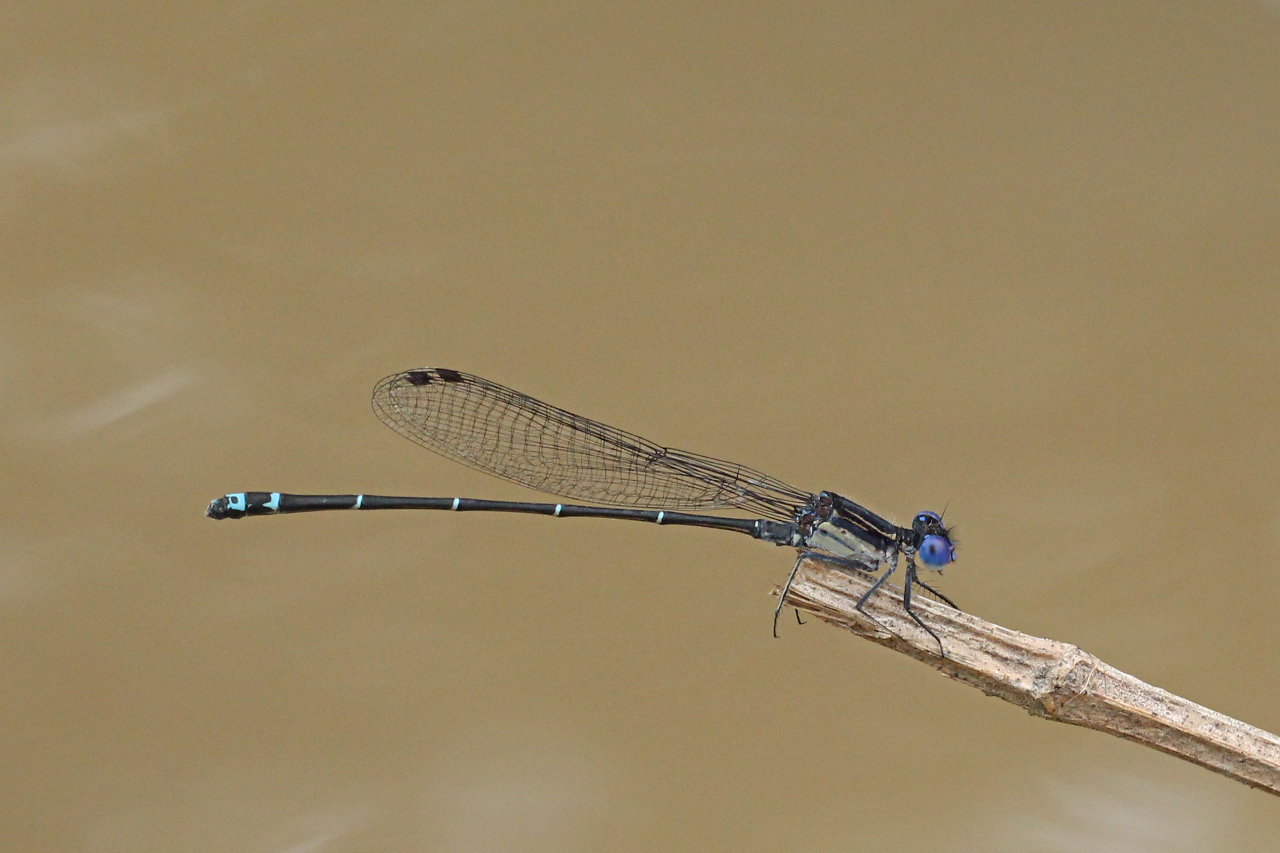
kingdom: Animalia
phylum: Arthropoda
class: Insecta
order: Odonata
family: Coenagrionidae
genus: Argia
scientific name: Argia translata
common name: Dusky dancer
